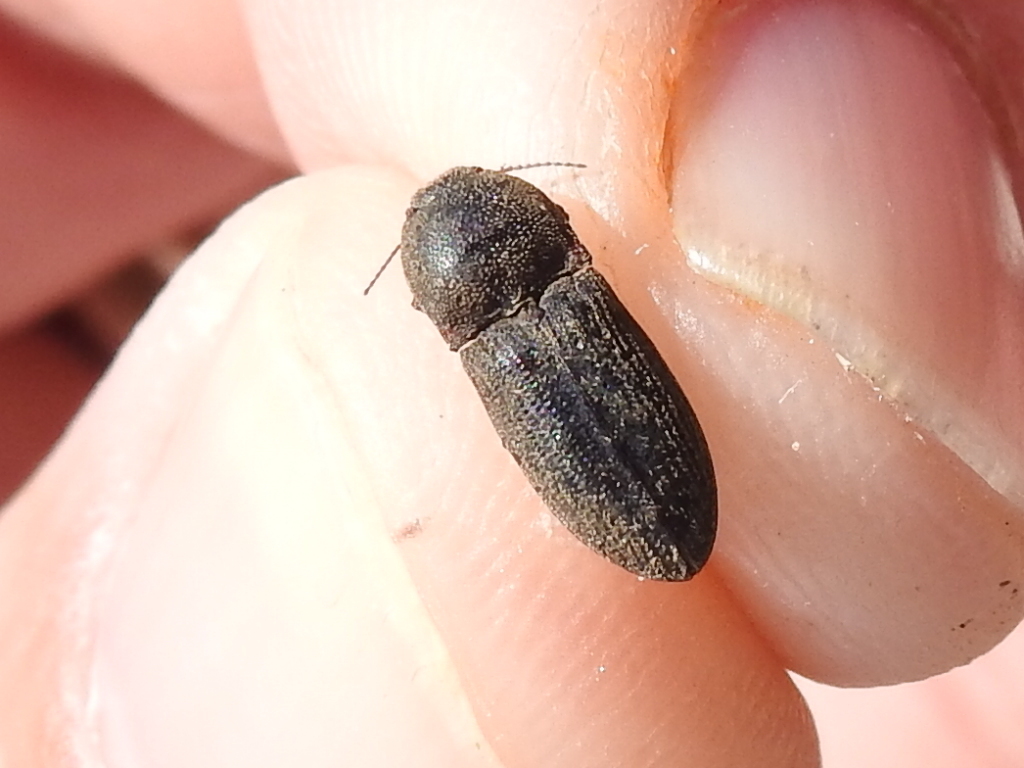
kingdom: Animalia
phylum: Arthropoda
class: Insecta
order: Coleoptera
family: Elateridae
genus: Agrypnus
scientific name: Agrypnus rectangularis
